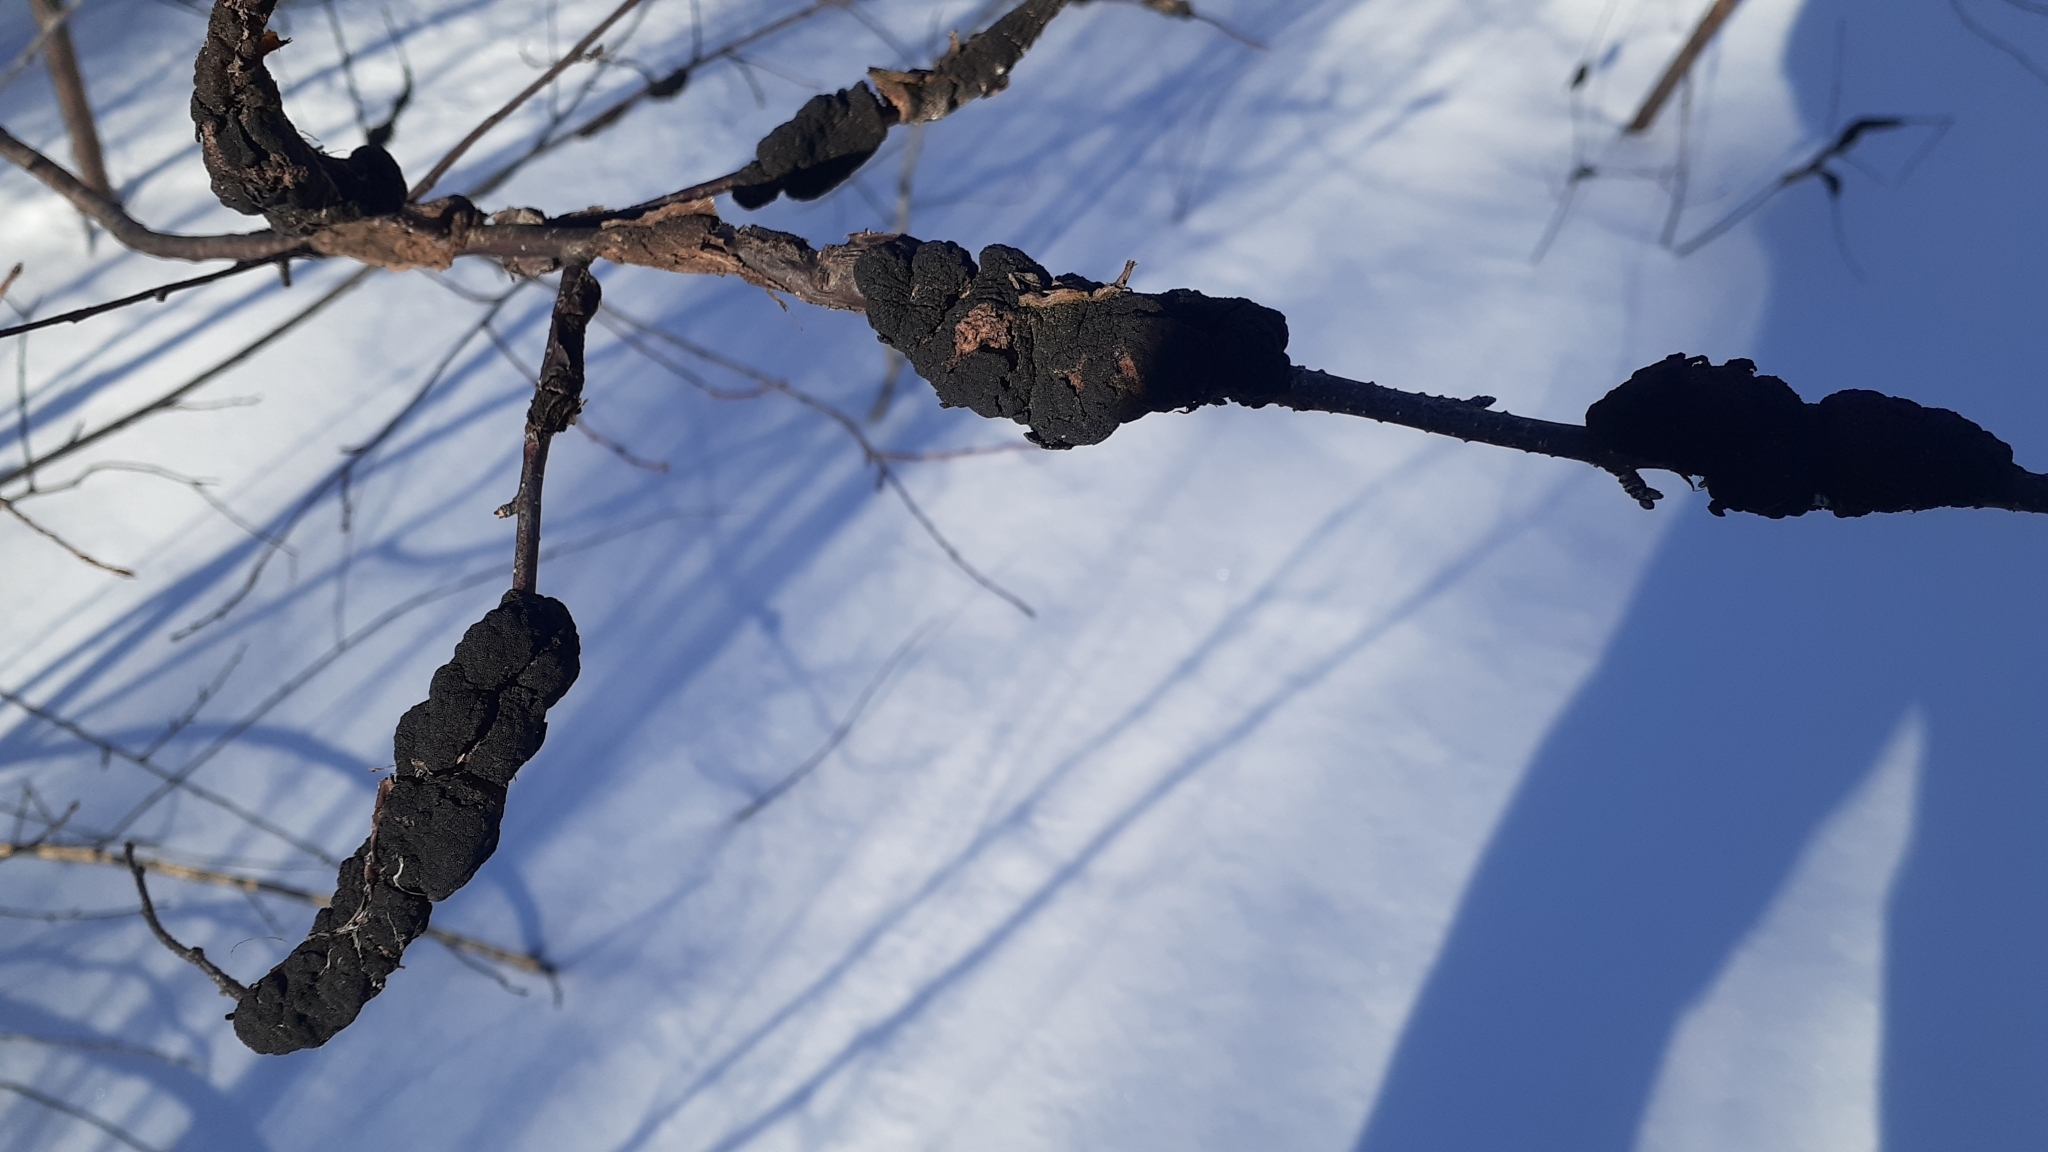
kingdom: Fungi
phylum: Ascomycota
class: Dothideomycetes
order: Venturiales
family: Venturiaceae
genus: Apiosporina
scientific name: Apiosporina morbosa
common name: Black knot
